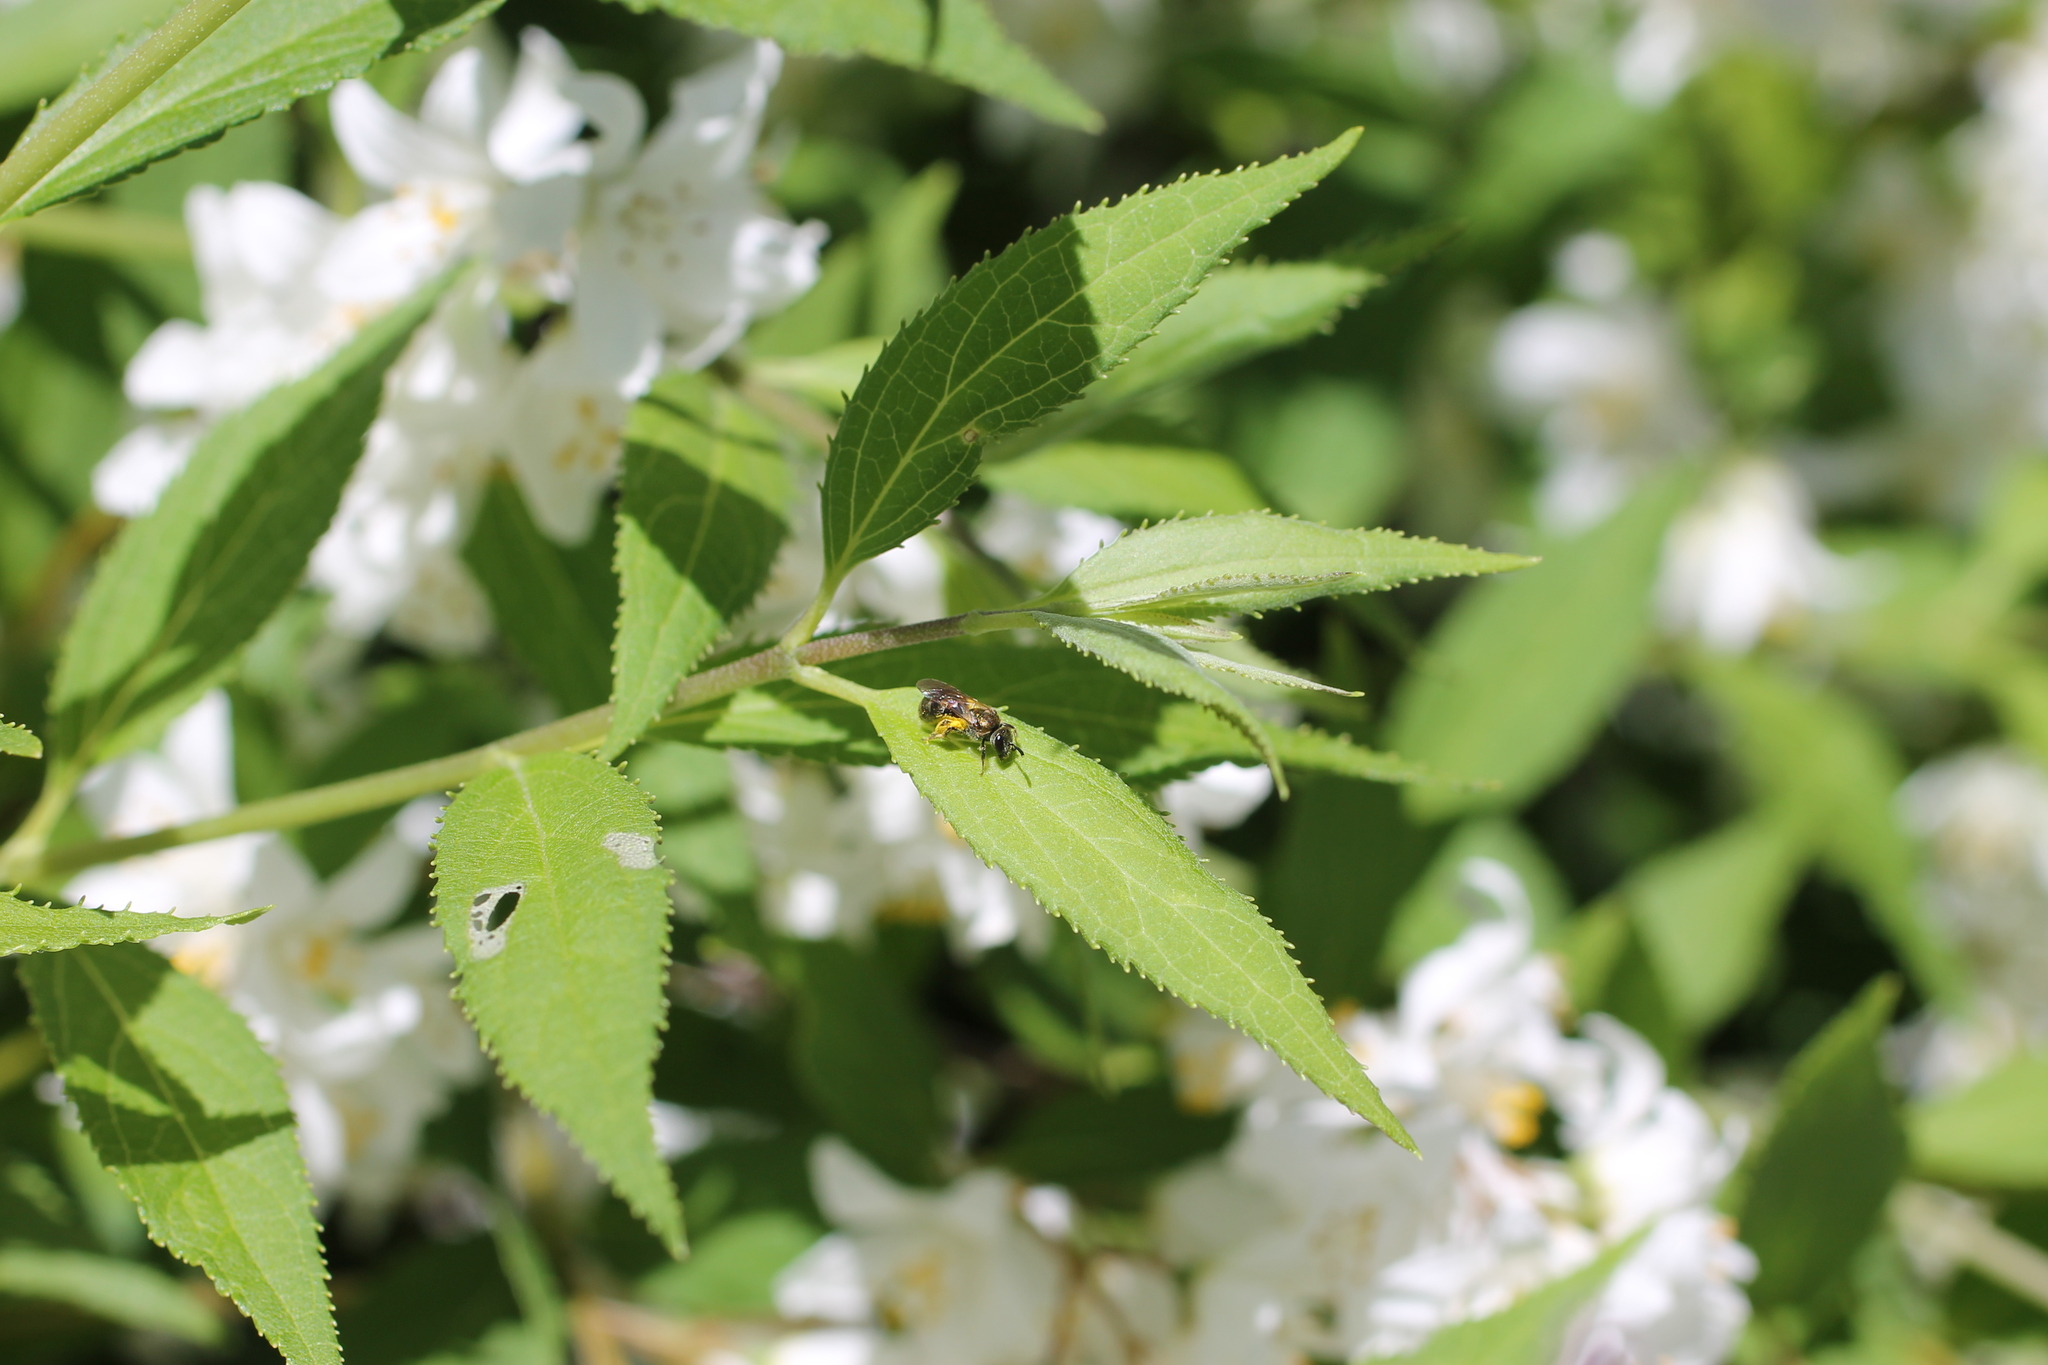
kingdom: Animalia
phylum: Arthropoda
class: Insecta
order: Hymenoptera
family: Halictidae
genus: Dialictus
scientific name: Dialictus
